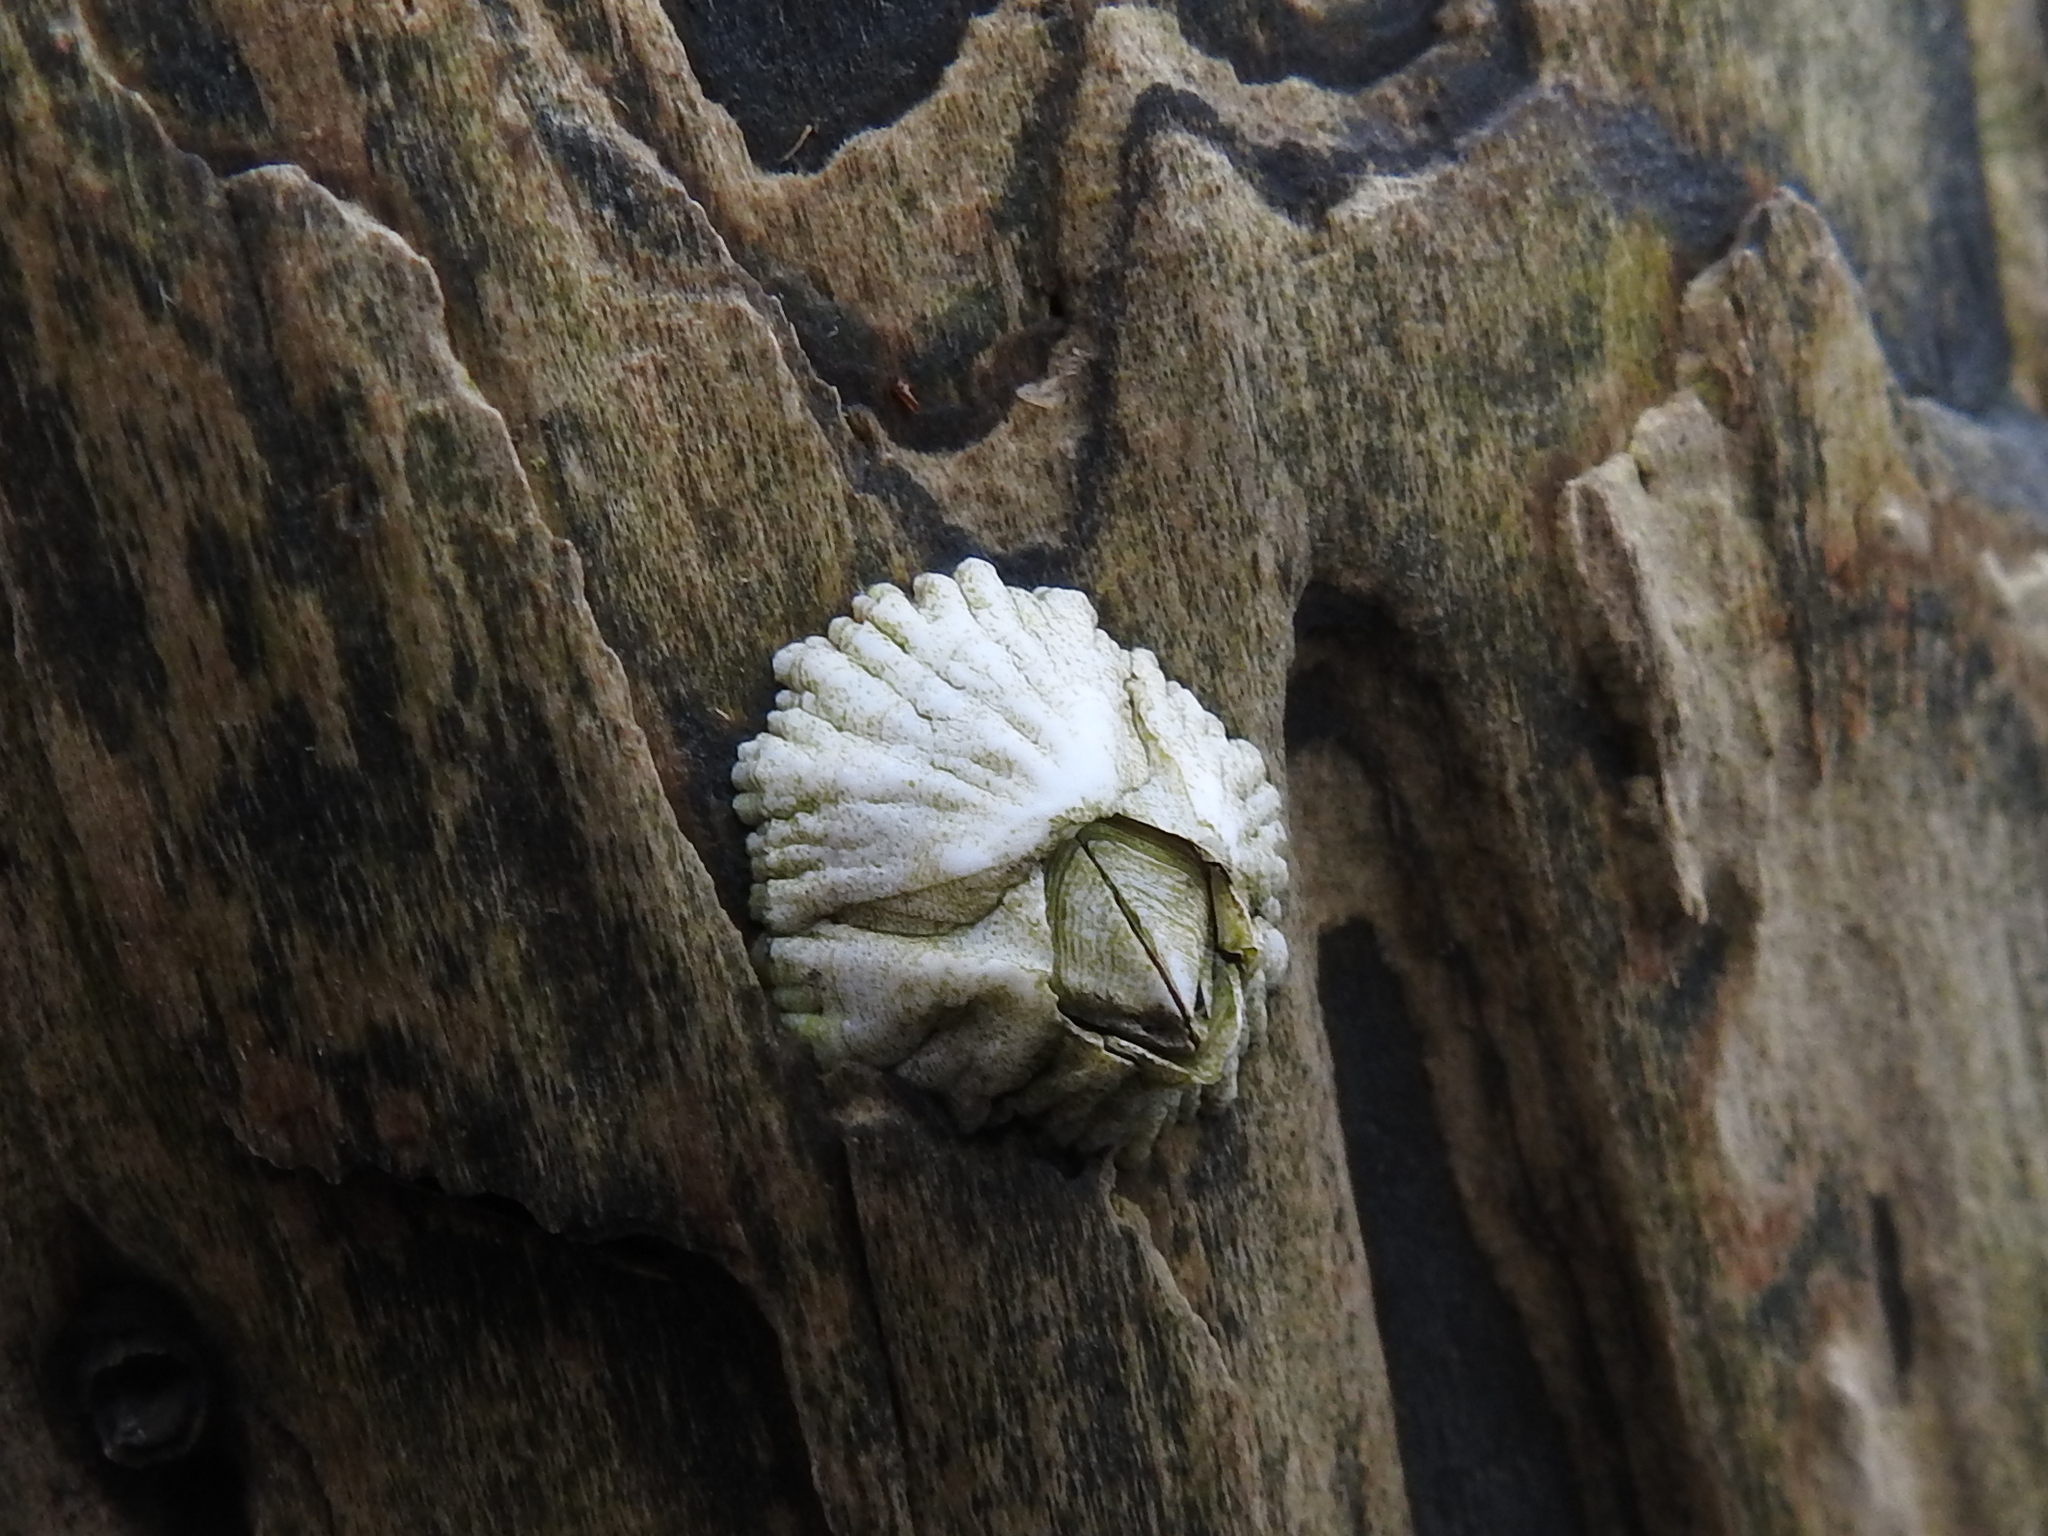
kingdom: Animalia
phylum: Arthropoda
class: Maxillopoda
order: Sessilia
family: Archaeobalanidae
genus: Semibalanus
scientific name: Semibalanus balanoides
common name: Acorn barnacle
